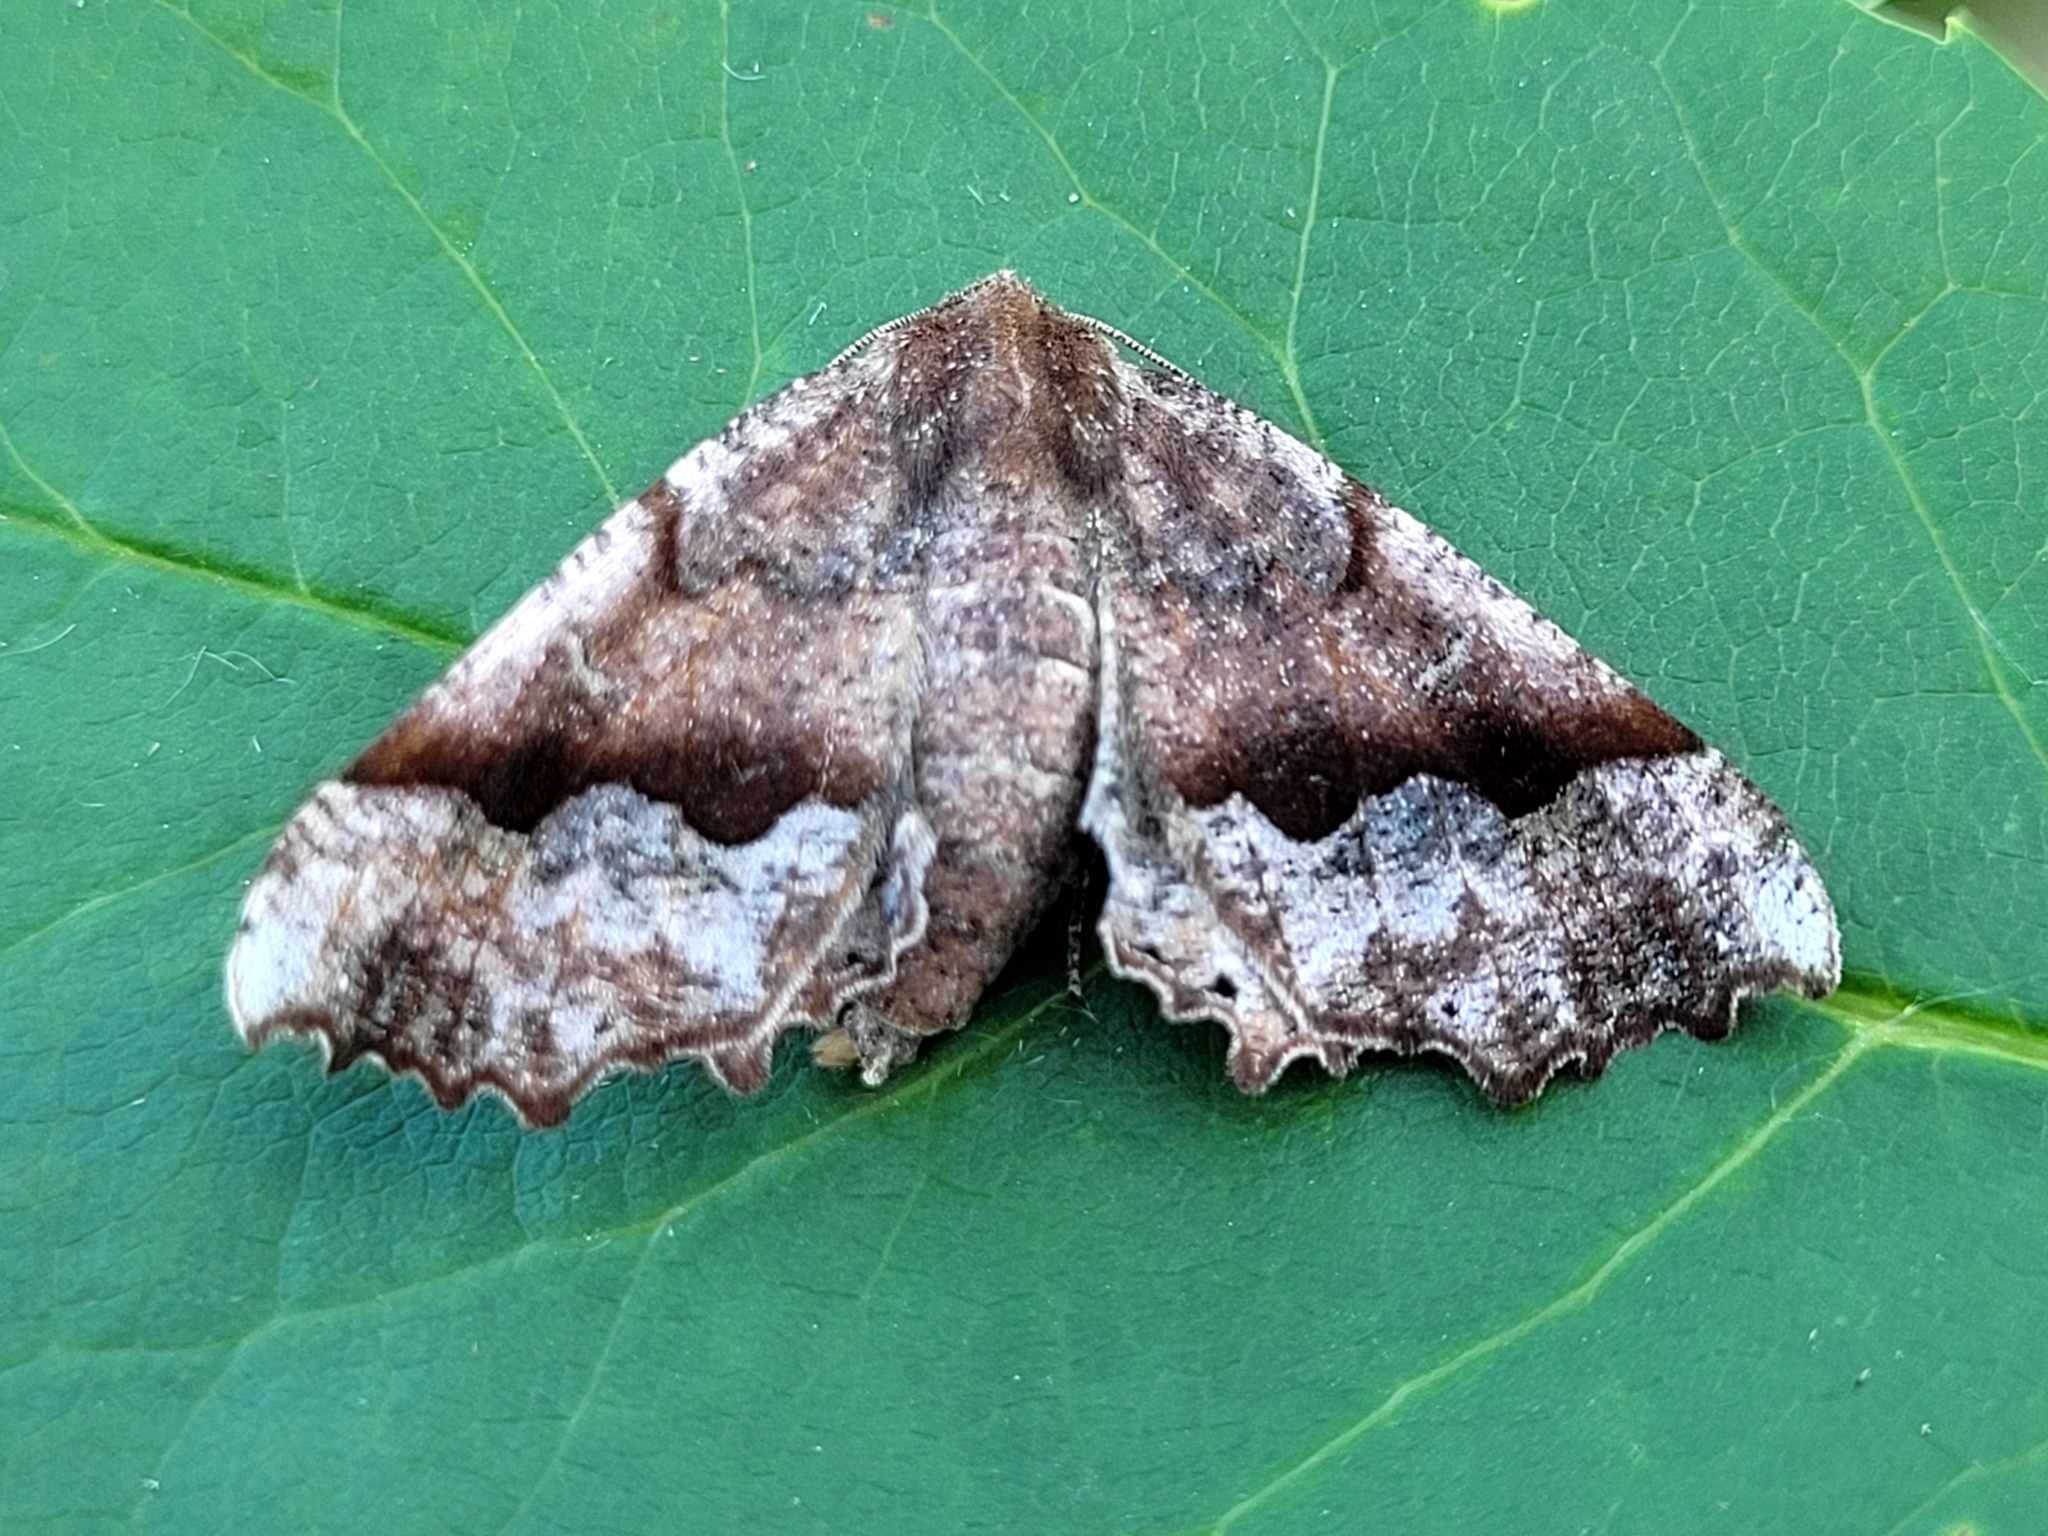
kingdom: Animalia
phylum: Arthropoda
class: Insecta
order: Lepidoptera
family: Geometridae
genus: Pero
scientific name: Pero honestaria
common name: Honest pero
